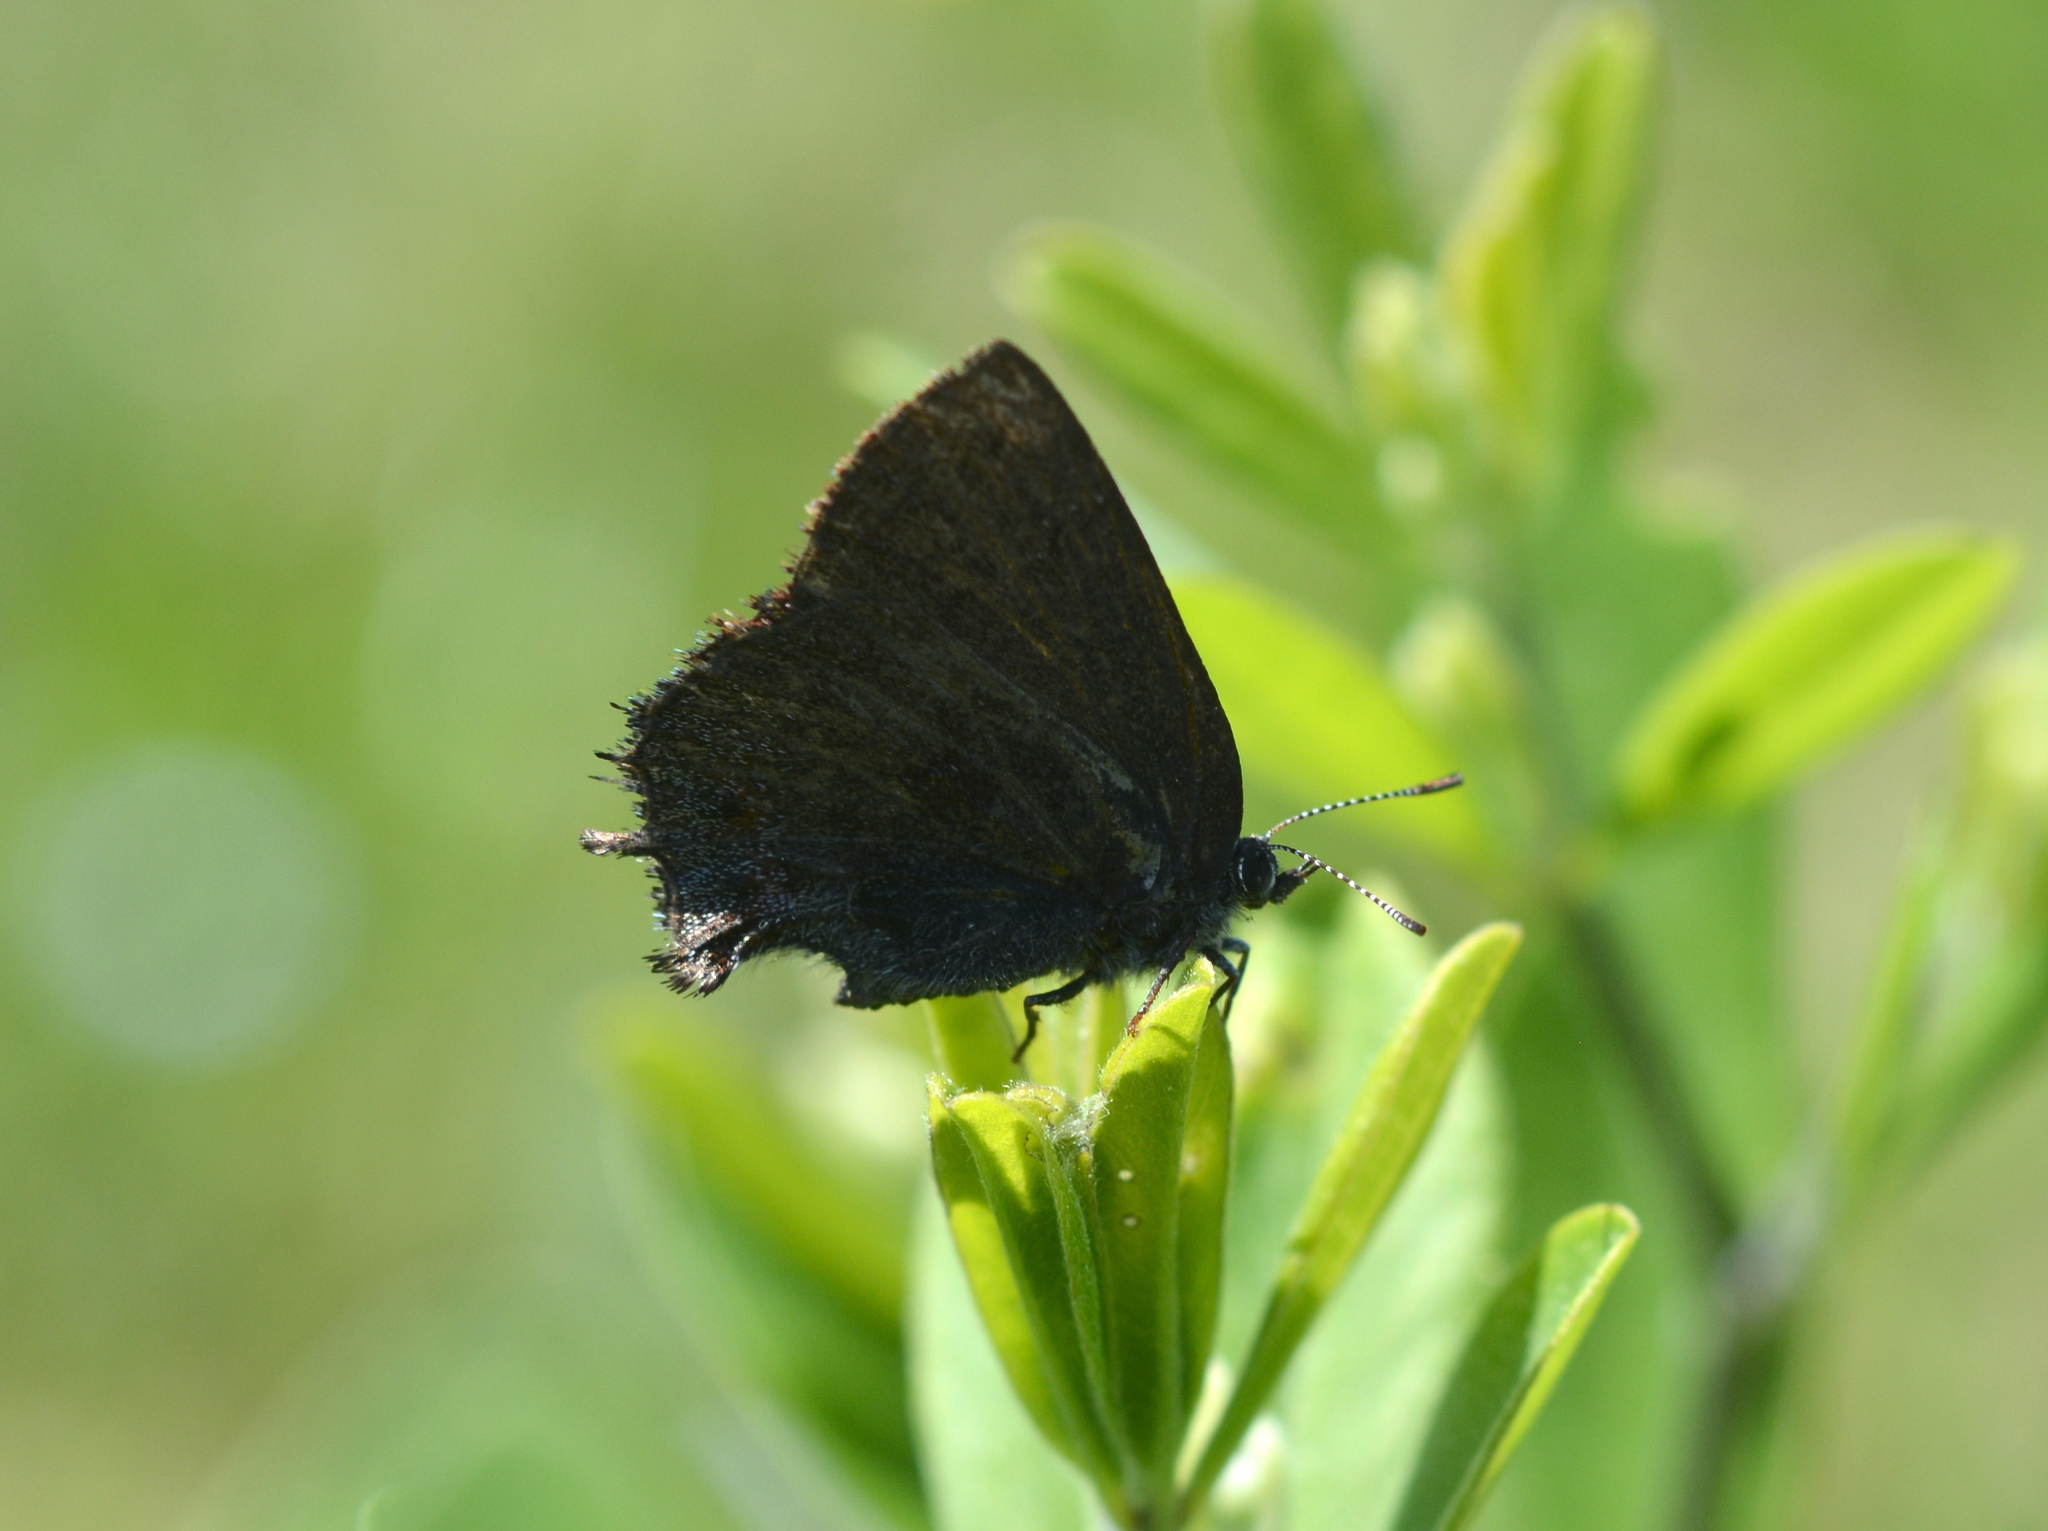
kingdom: Animalia
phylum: Arthropoda
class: Insecta
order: Lepidoptera
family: Lycaenidae
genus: Thecla
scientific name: Thecla irus
